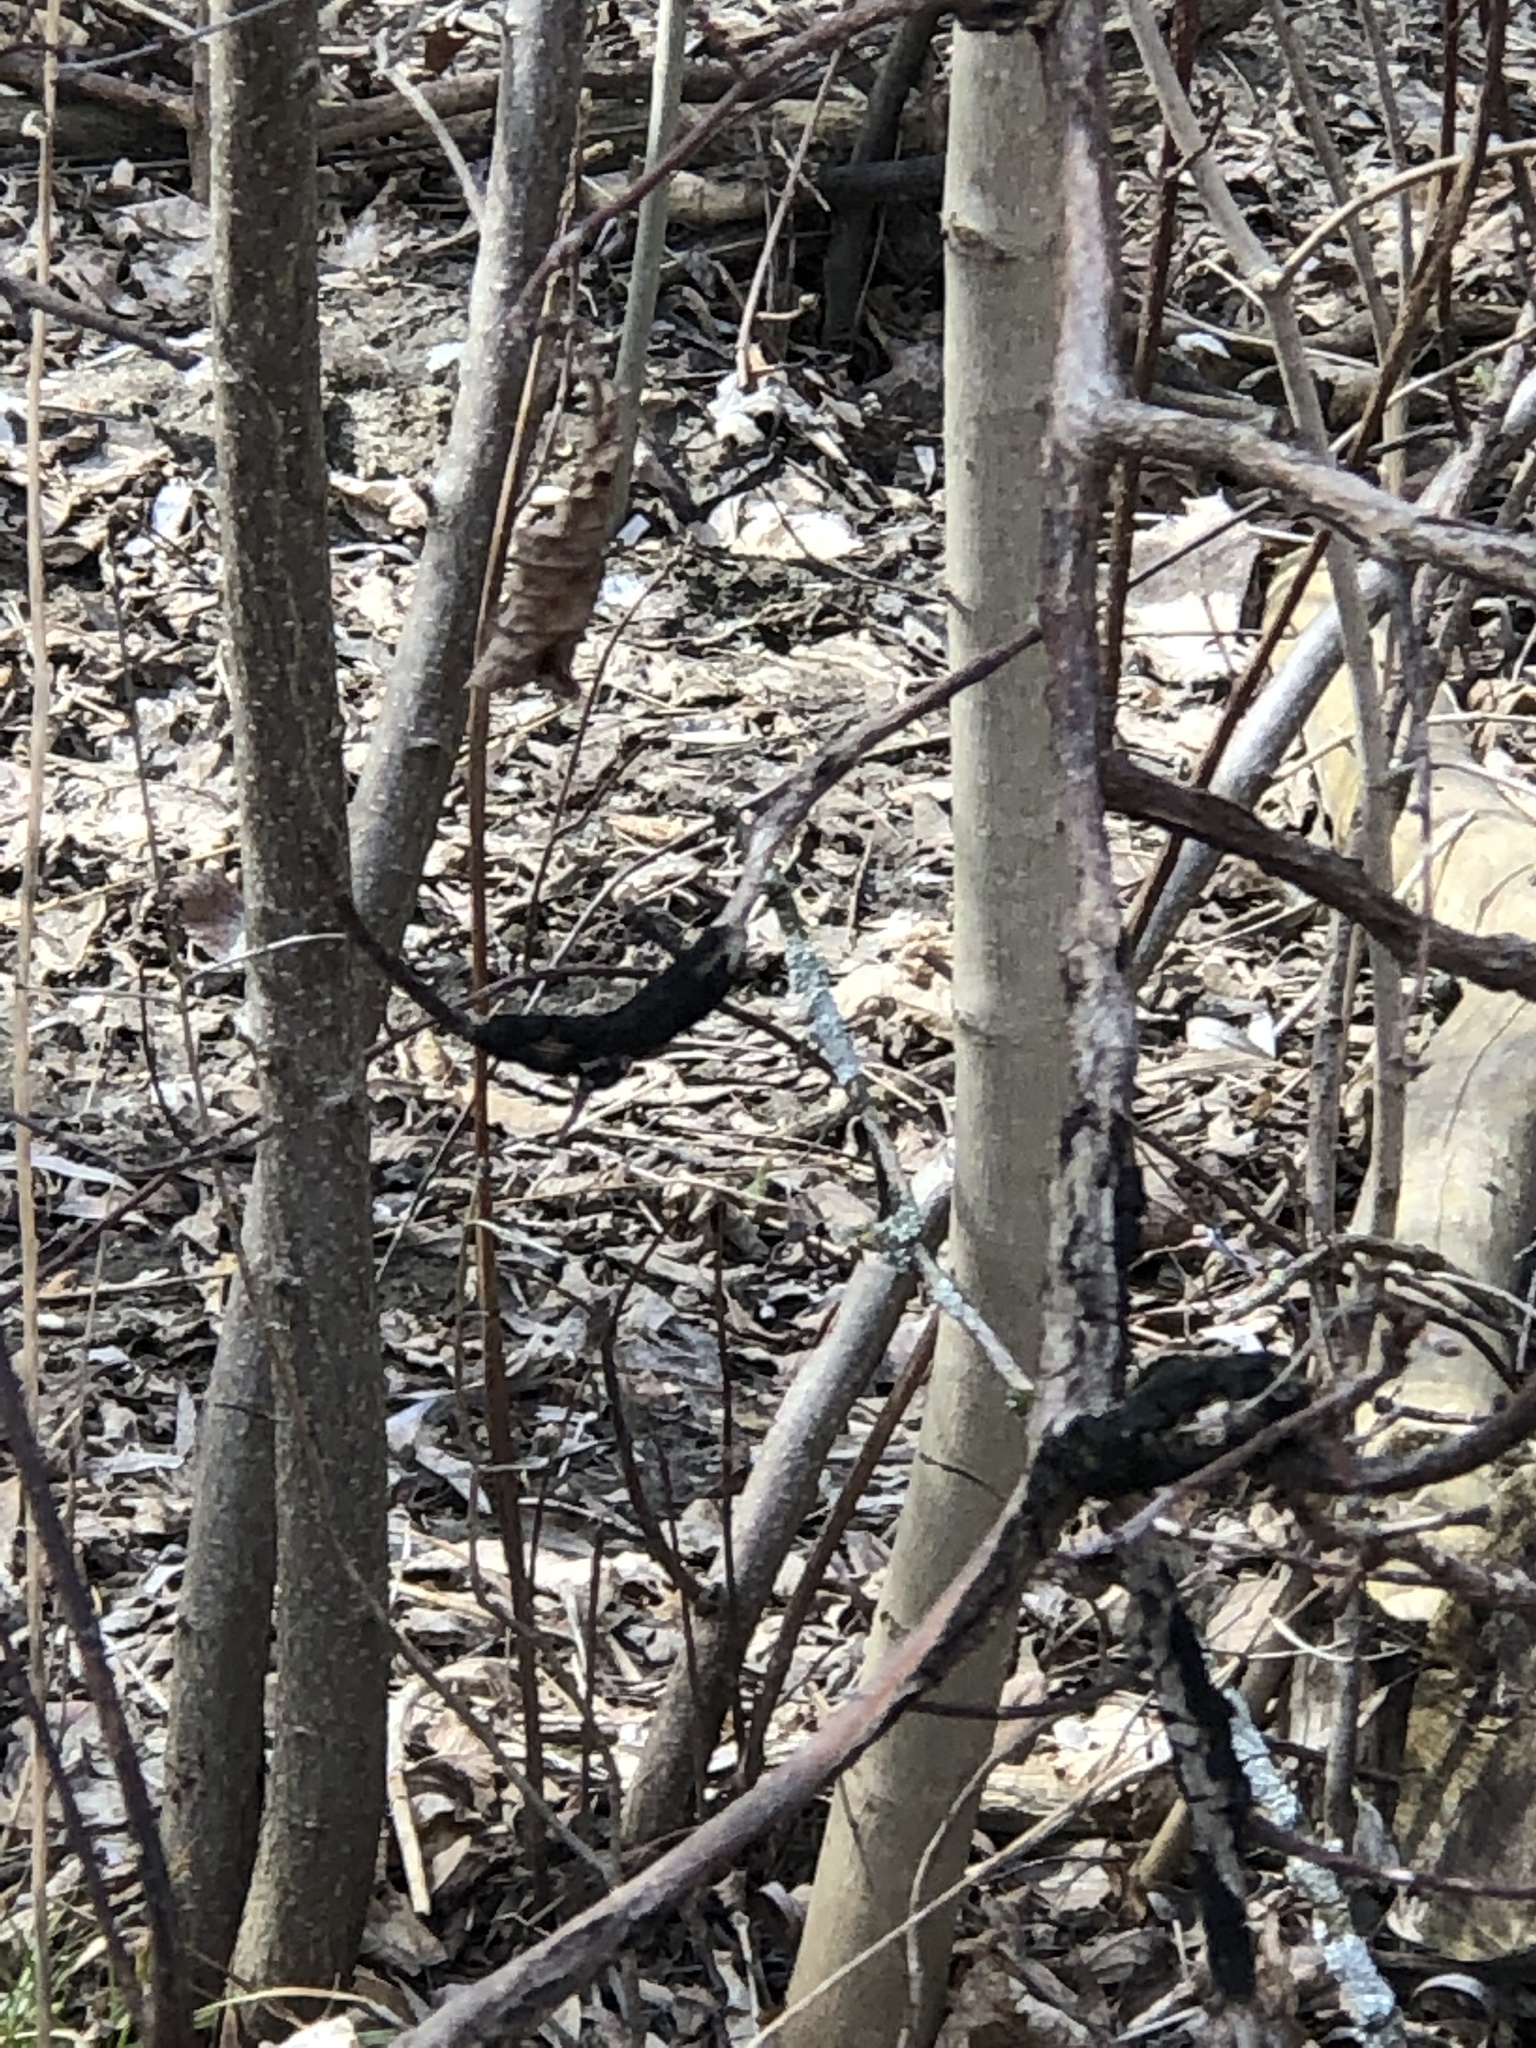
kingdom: Fungi
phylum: Ascomycota
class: Dothideomycetes
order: Venturiales
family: Venturiaceae
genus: Apiosporina
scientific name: Apiosporina morbosa
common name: Black knot
